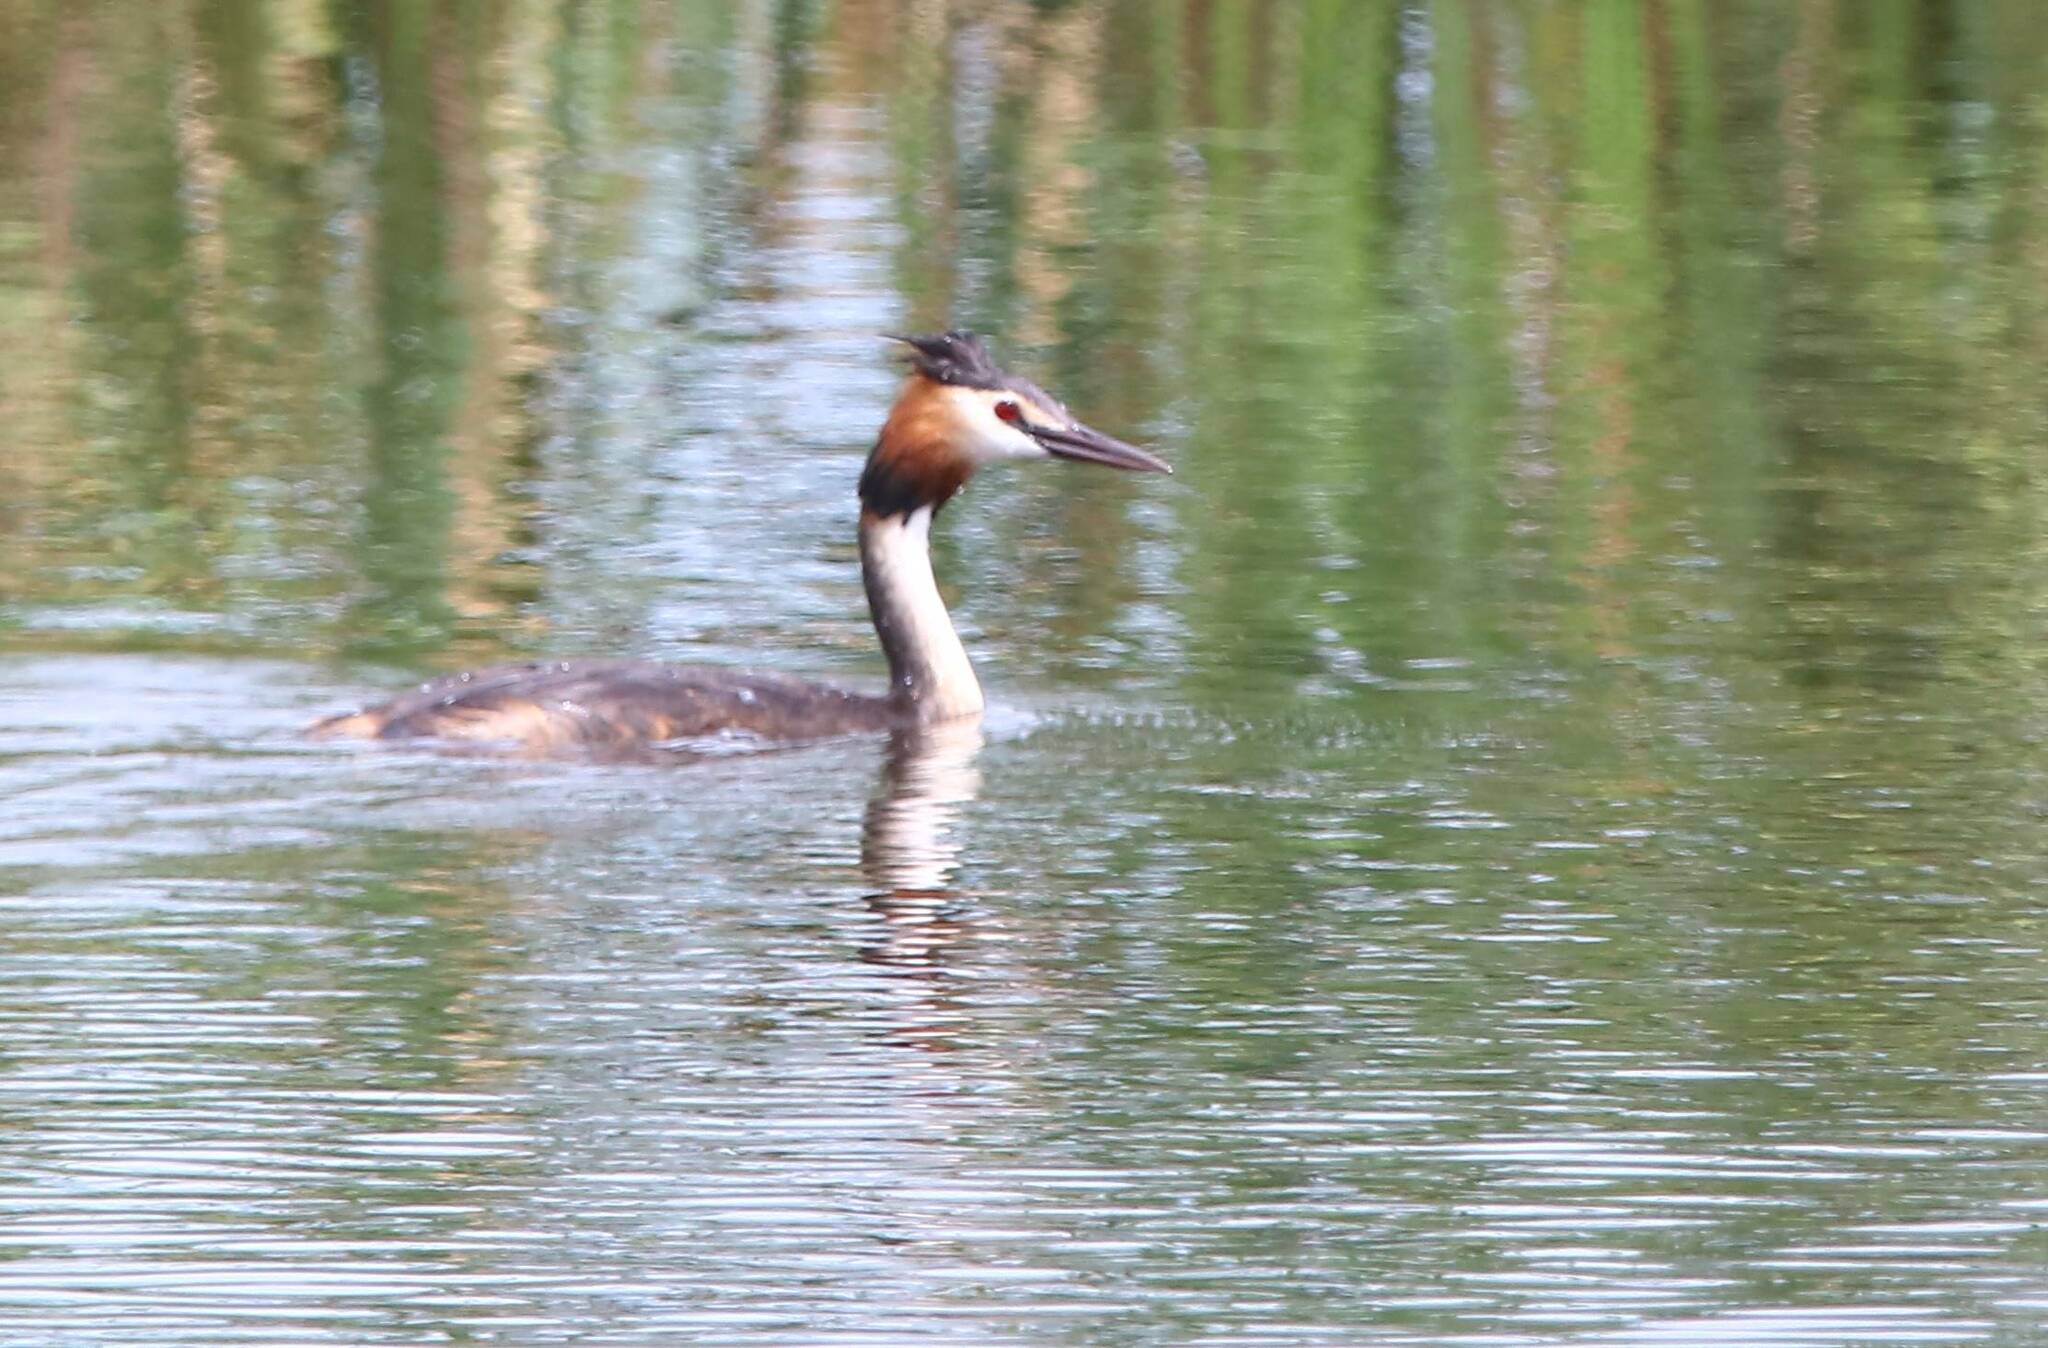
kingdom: Animalia
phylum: Chordata
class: Aves
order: Podicipediformes
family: Podicipedidae
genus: Podiceps
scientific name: Podiceps cristatus
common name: Great crested grebe
